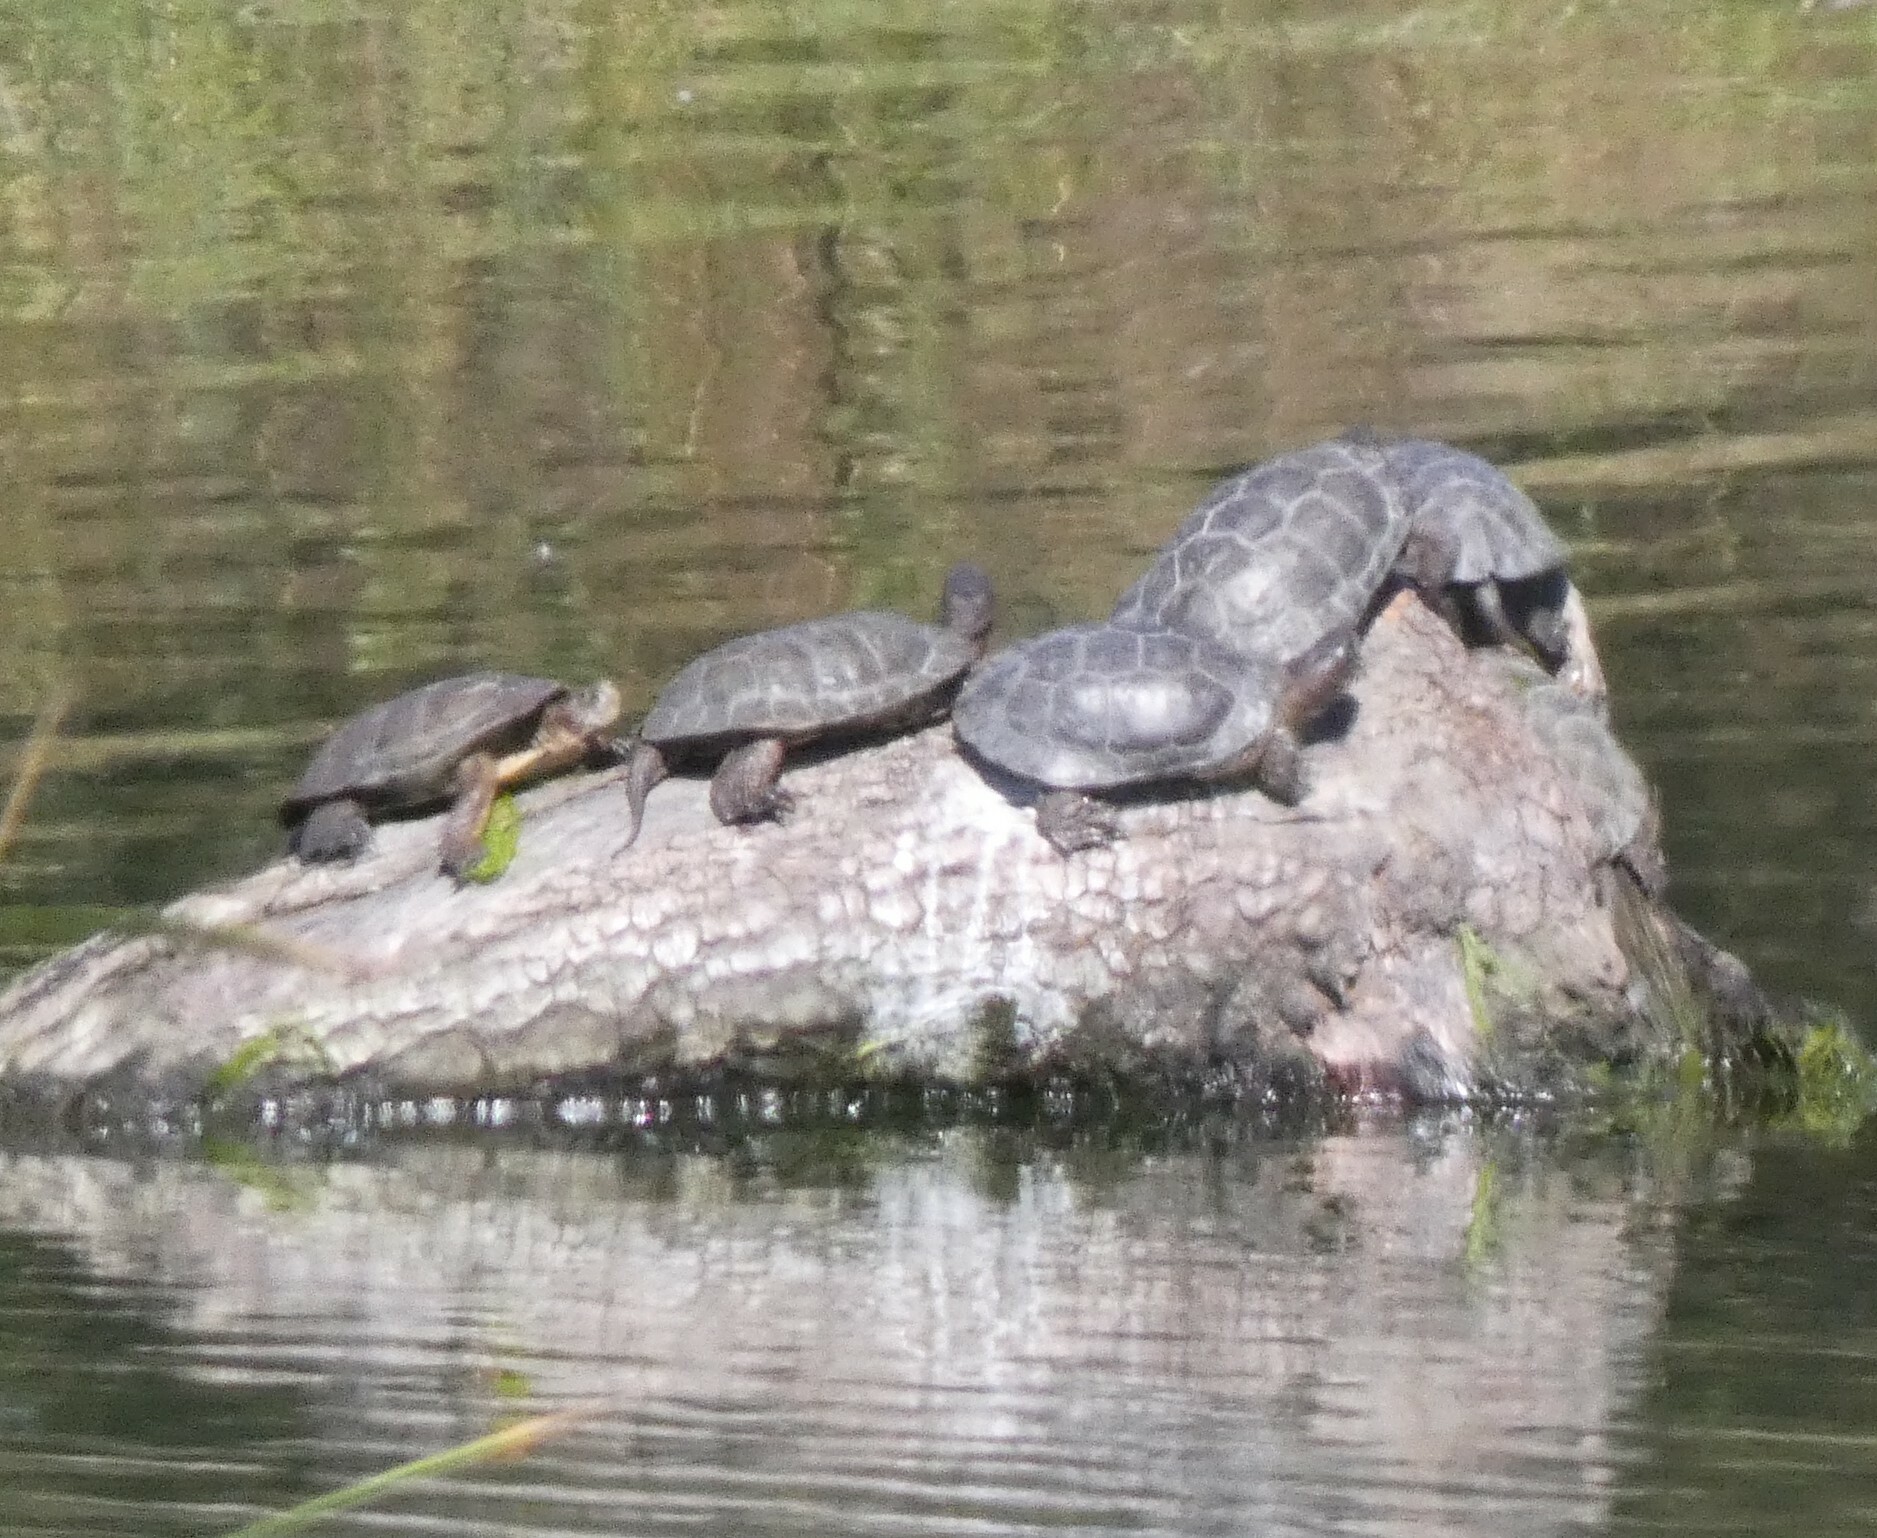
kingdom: Animalia
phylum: Chordata
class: Testudines
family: Emydidae
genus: Actinemys
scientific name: Actinemys marmorata
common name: Western pond turtle
